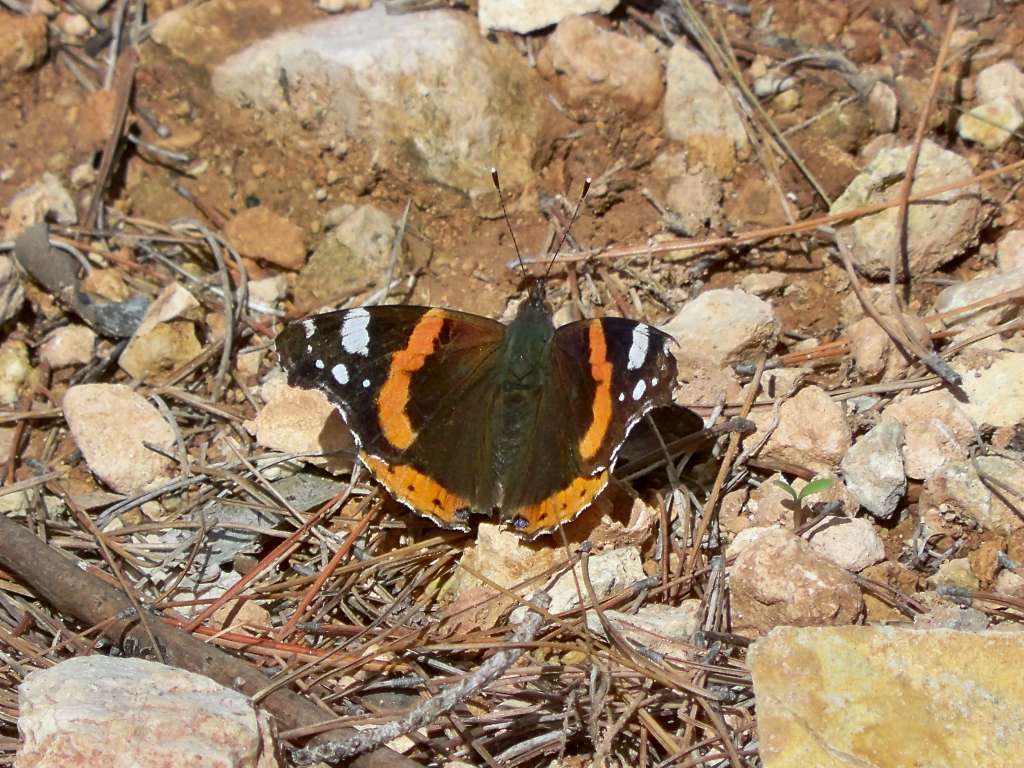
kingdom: Animalia
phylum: Arthropoda
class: Insecta
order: Lepidoptera
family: Nymphalidae
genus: Vanessa
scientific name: Vanessa atalanta
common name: Red admiral
